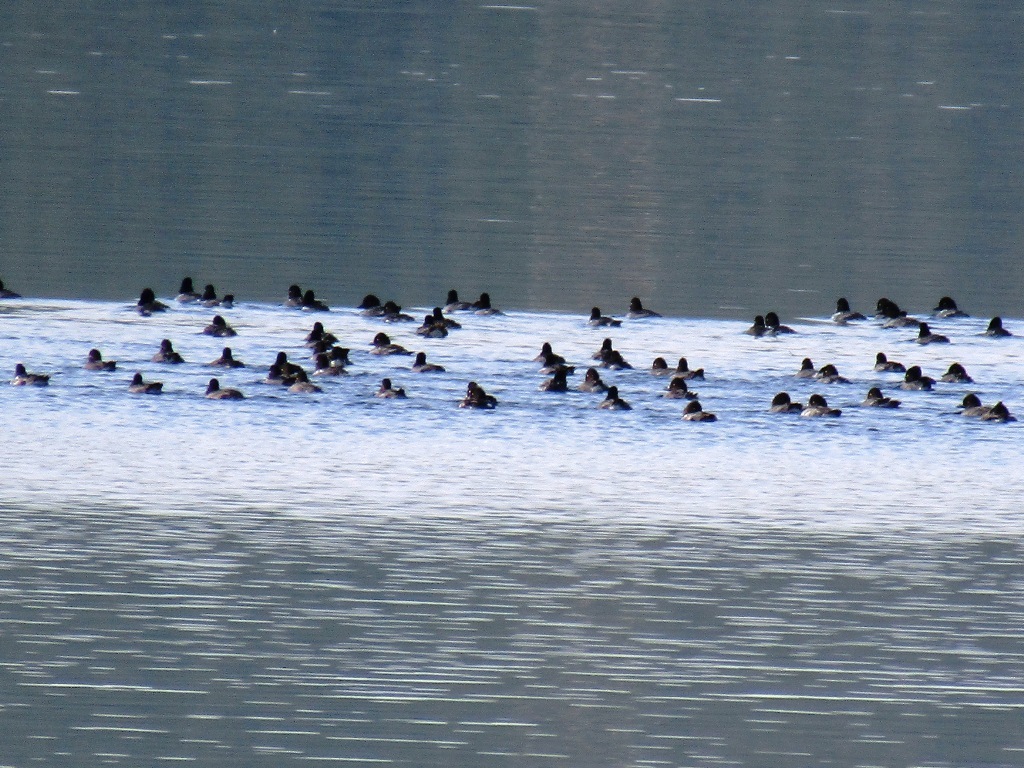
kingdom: Animalia
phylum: Chordata
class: Aves
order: Anseriformes
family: Anatidae
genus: Bucephala
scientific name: Bucephala clangula
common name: Common goldeneye
